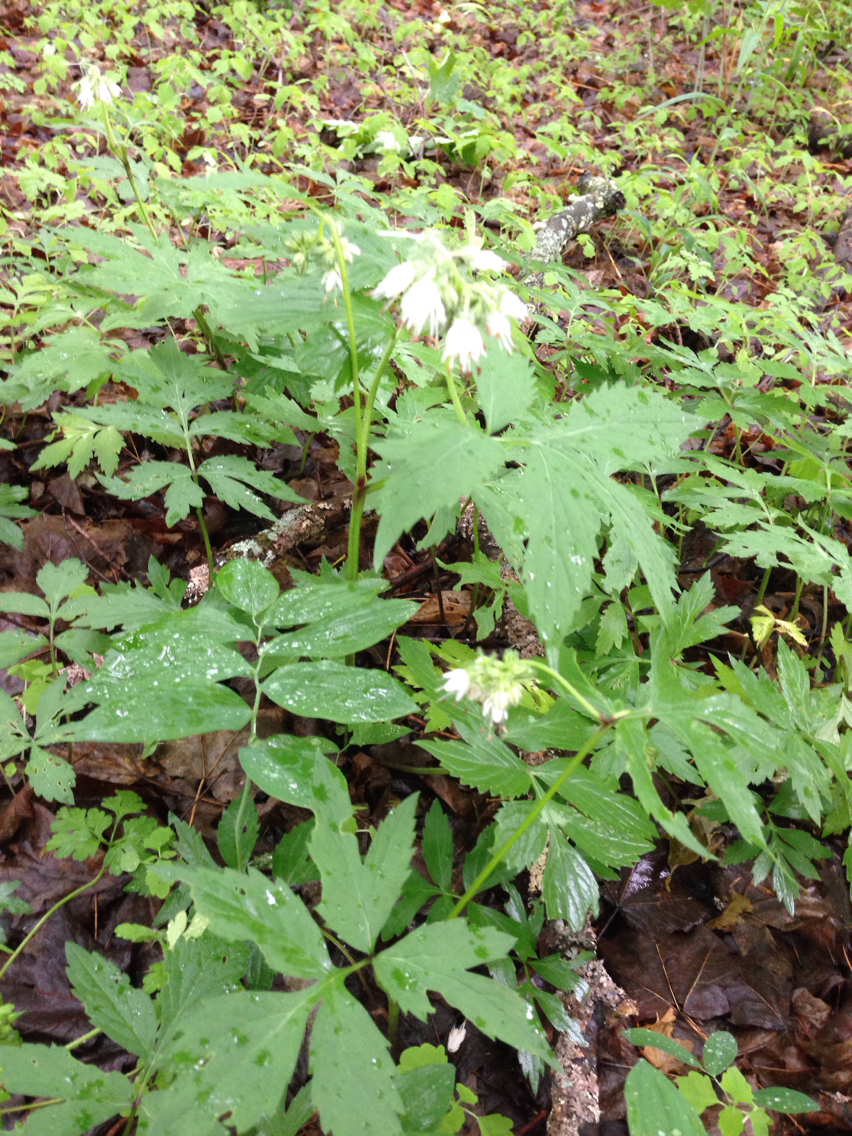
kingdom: Plantae
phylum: Tracheophyta
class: Magnoliopsida
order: Boraginales
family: Hydrophyllaceae
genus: Hydrophyllum
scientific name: Hydrophyllum virginianum
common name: Virginia waterleaf
